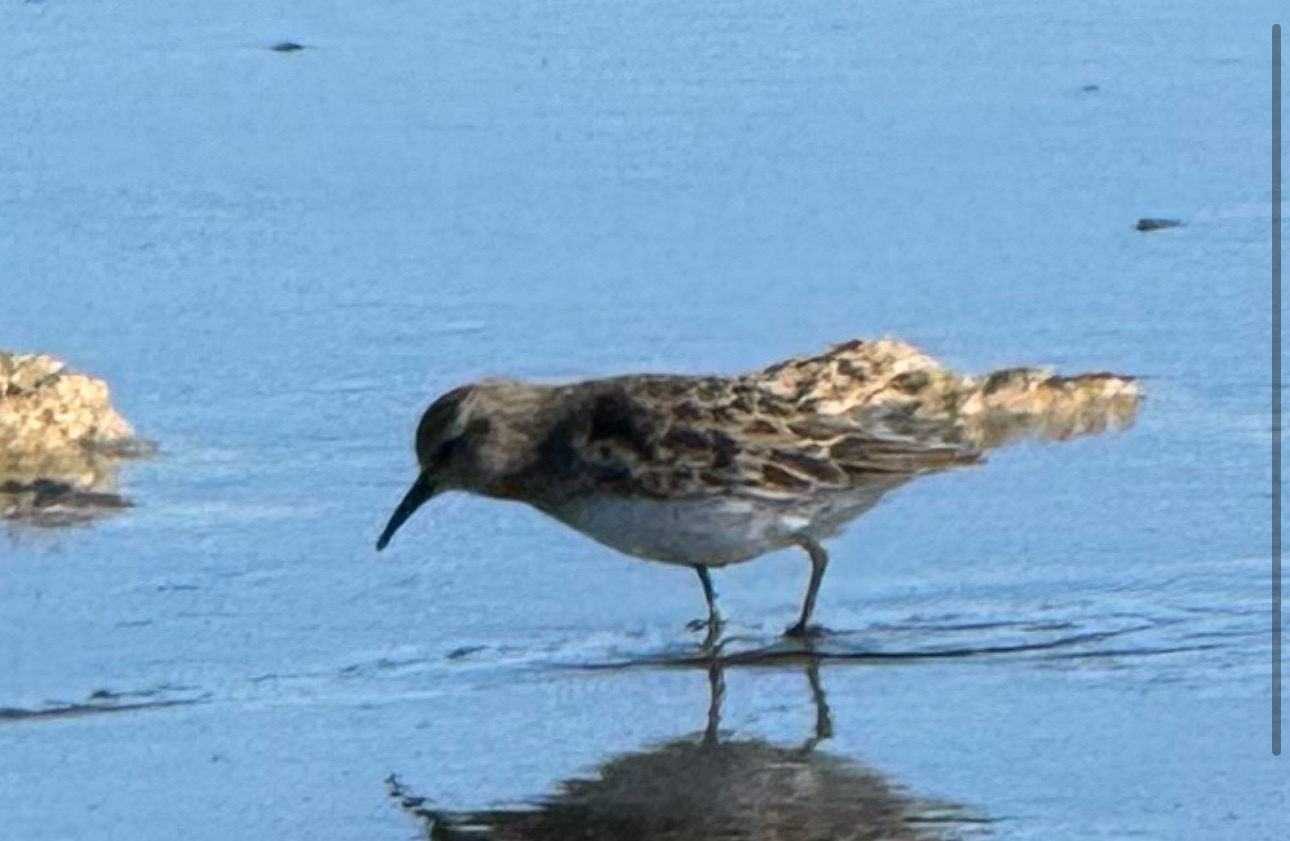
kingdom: Animalia
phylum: Chordata
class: Aves
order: Charadriiformes
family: Scolopacidae
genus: Calidris
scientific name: Calidris minutilla
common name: Least sandpiper
